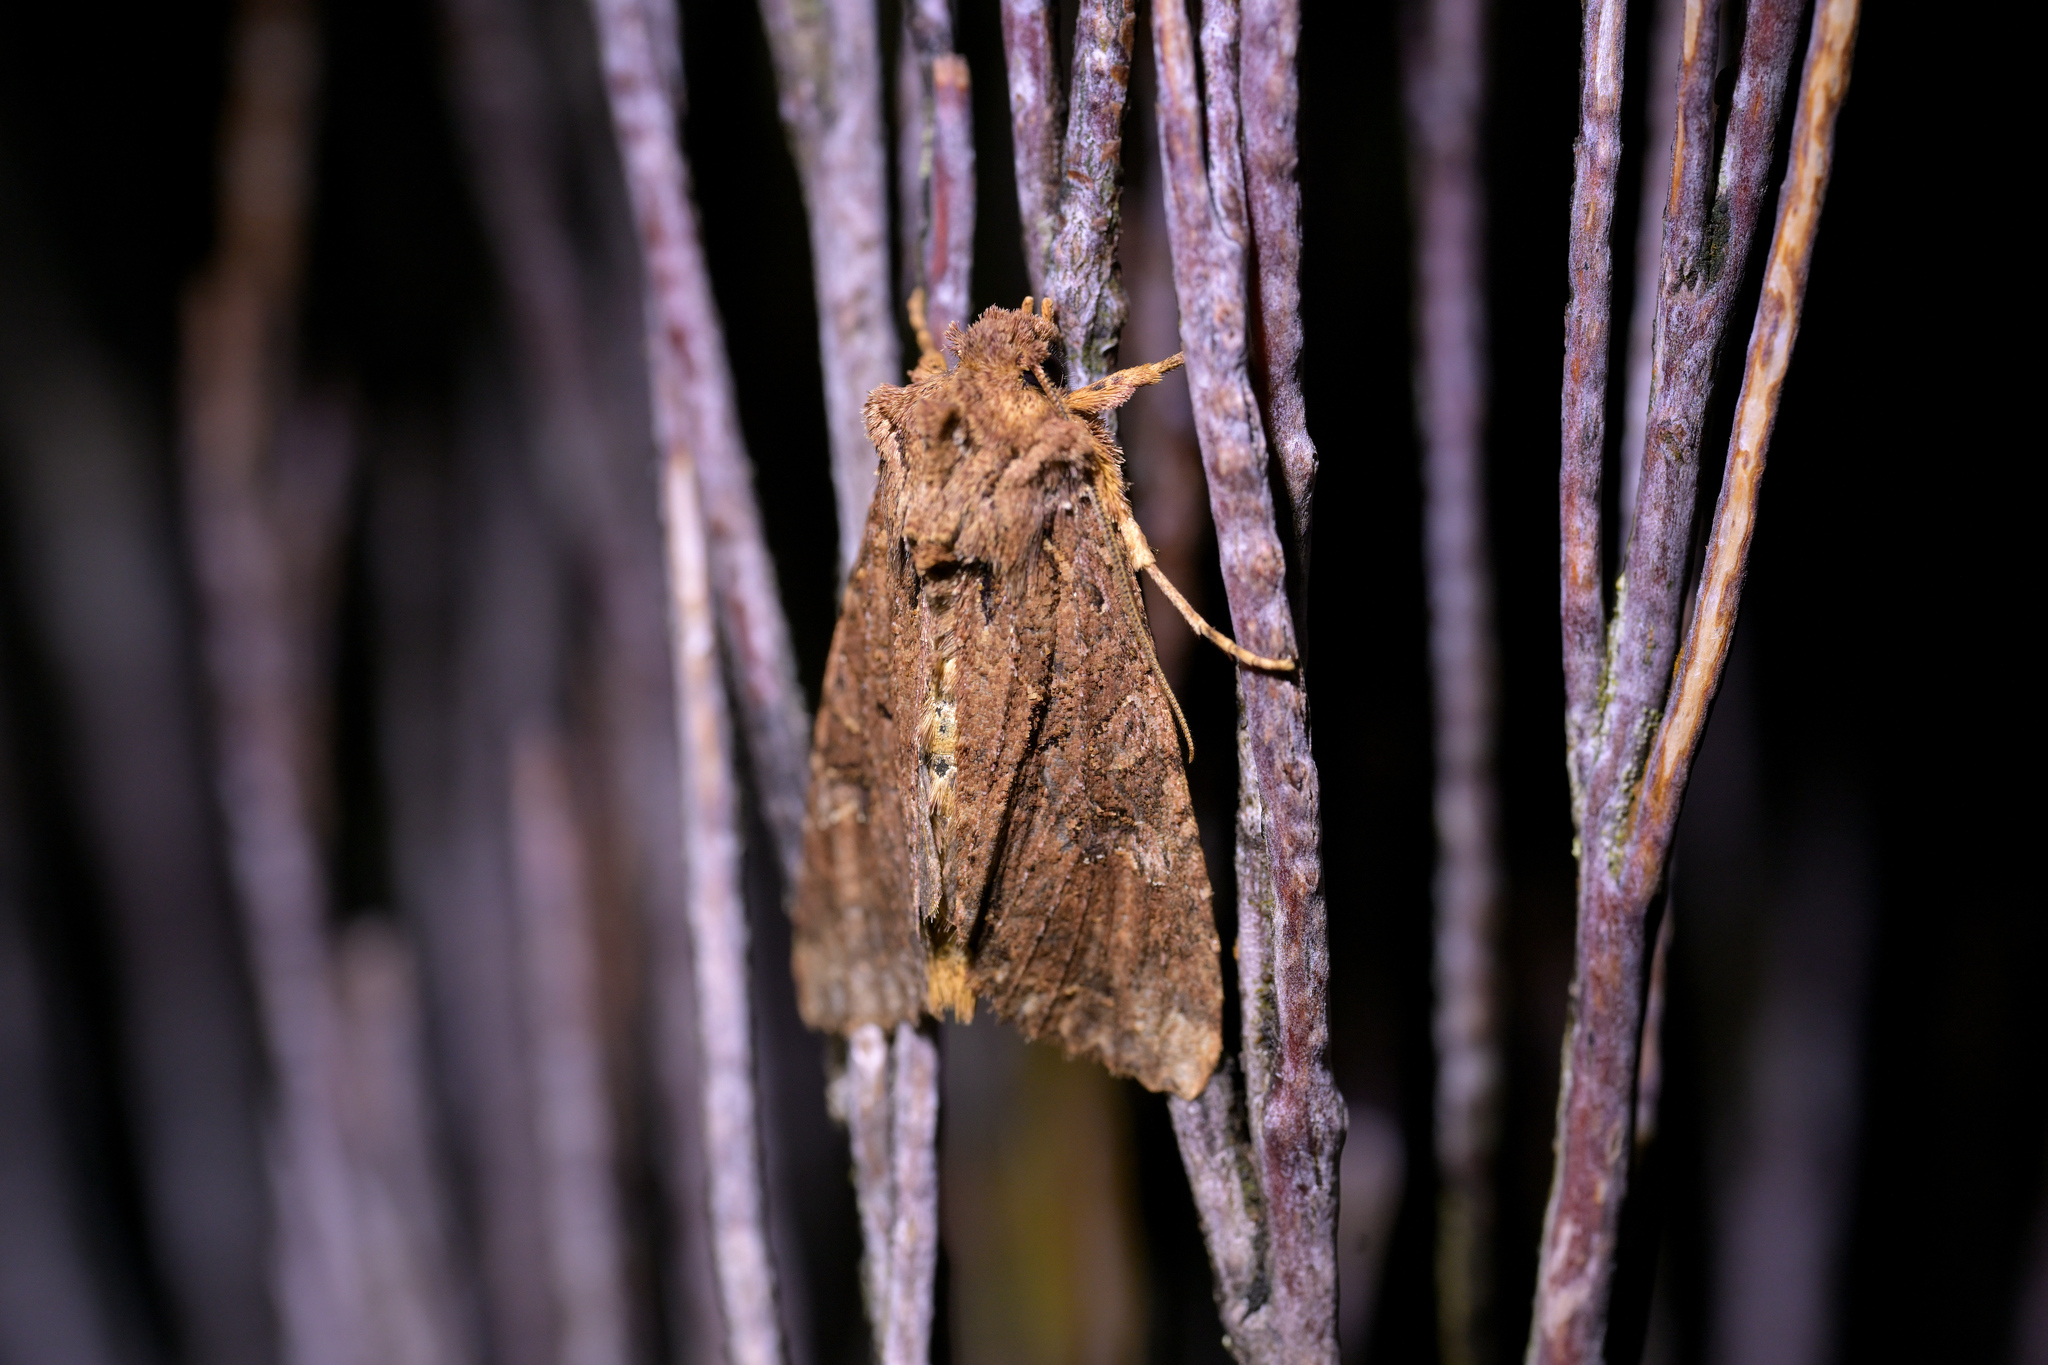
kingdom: Animalia
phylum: Arthropoda
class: Insecta
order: Lepidoptera
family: Noctuidae
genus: Meterana
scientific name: Meterana
